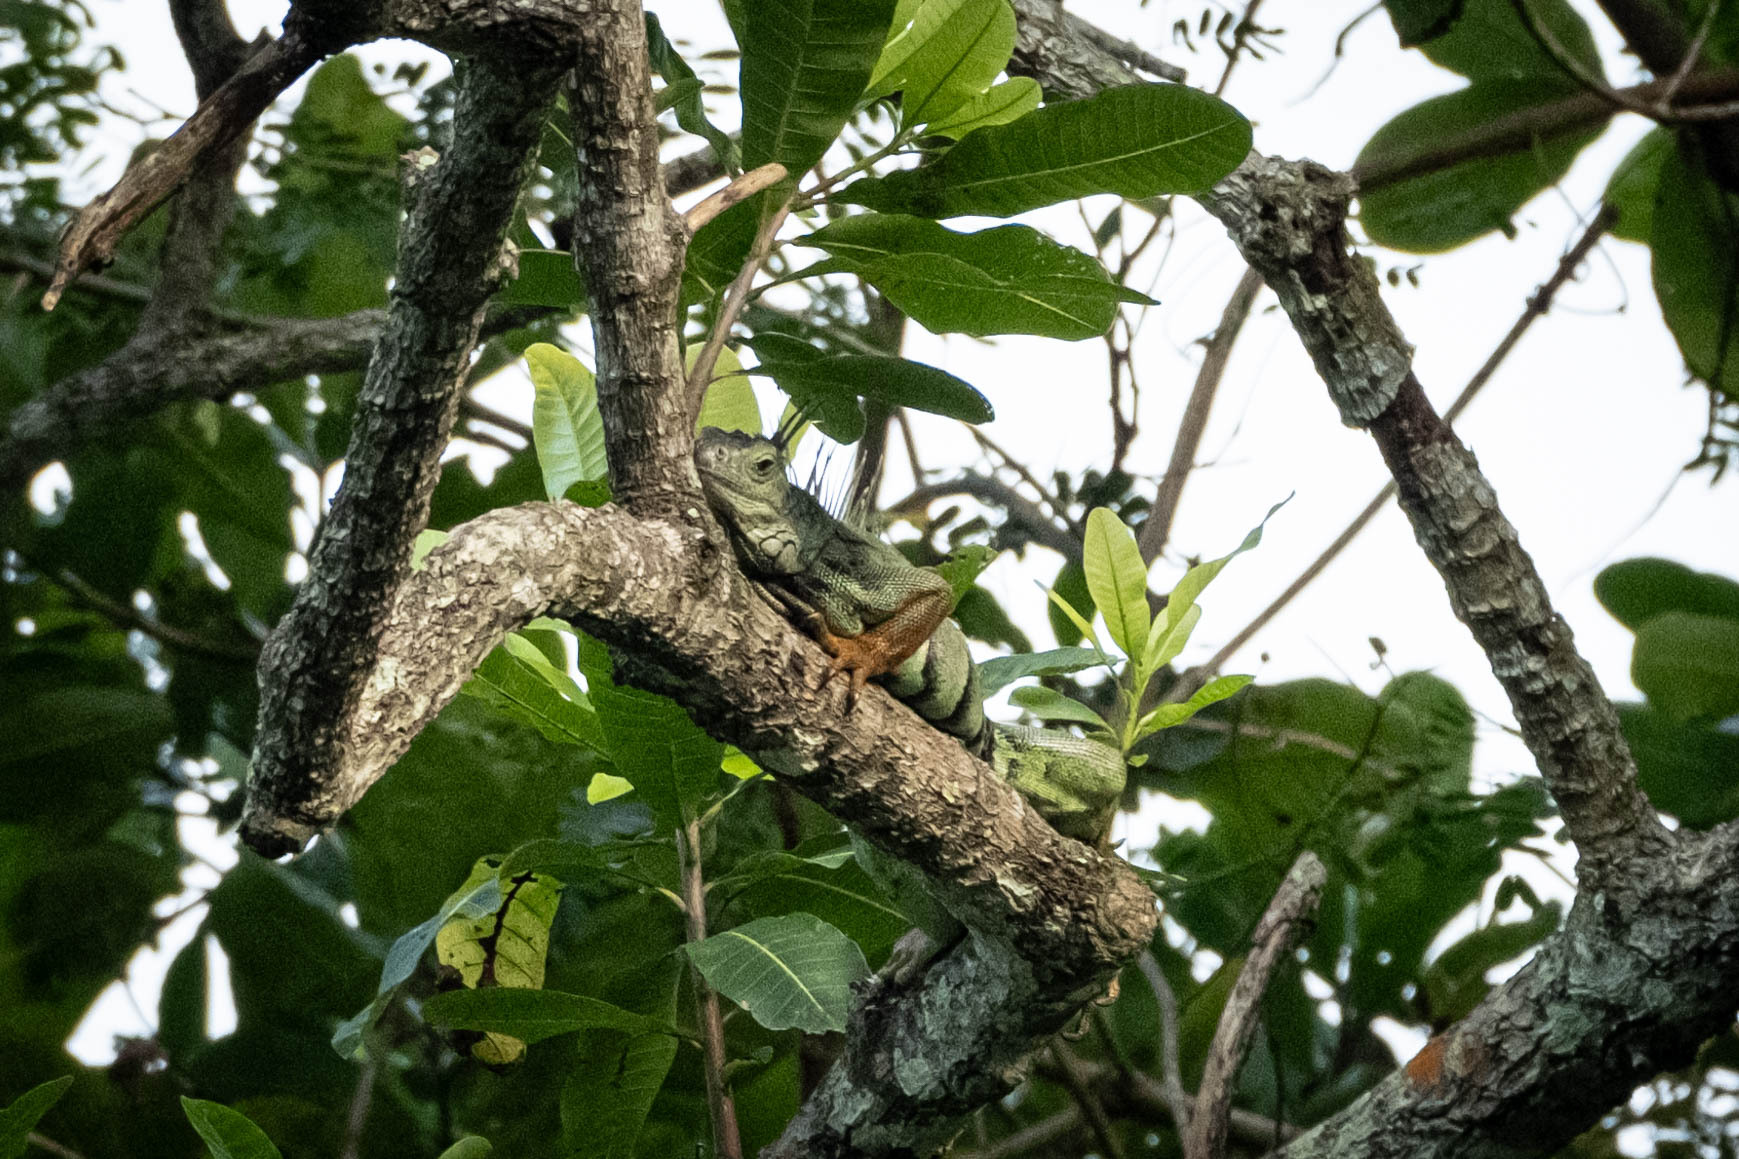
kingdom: Animalia
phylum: Chordata
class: Squamata
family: Iguanidae
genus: Iguana
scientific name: Iguana iguana
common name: Green iguana
